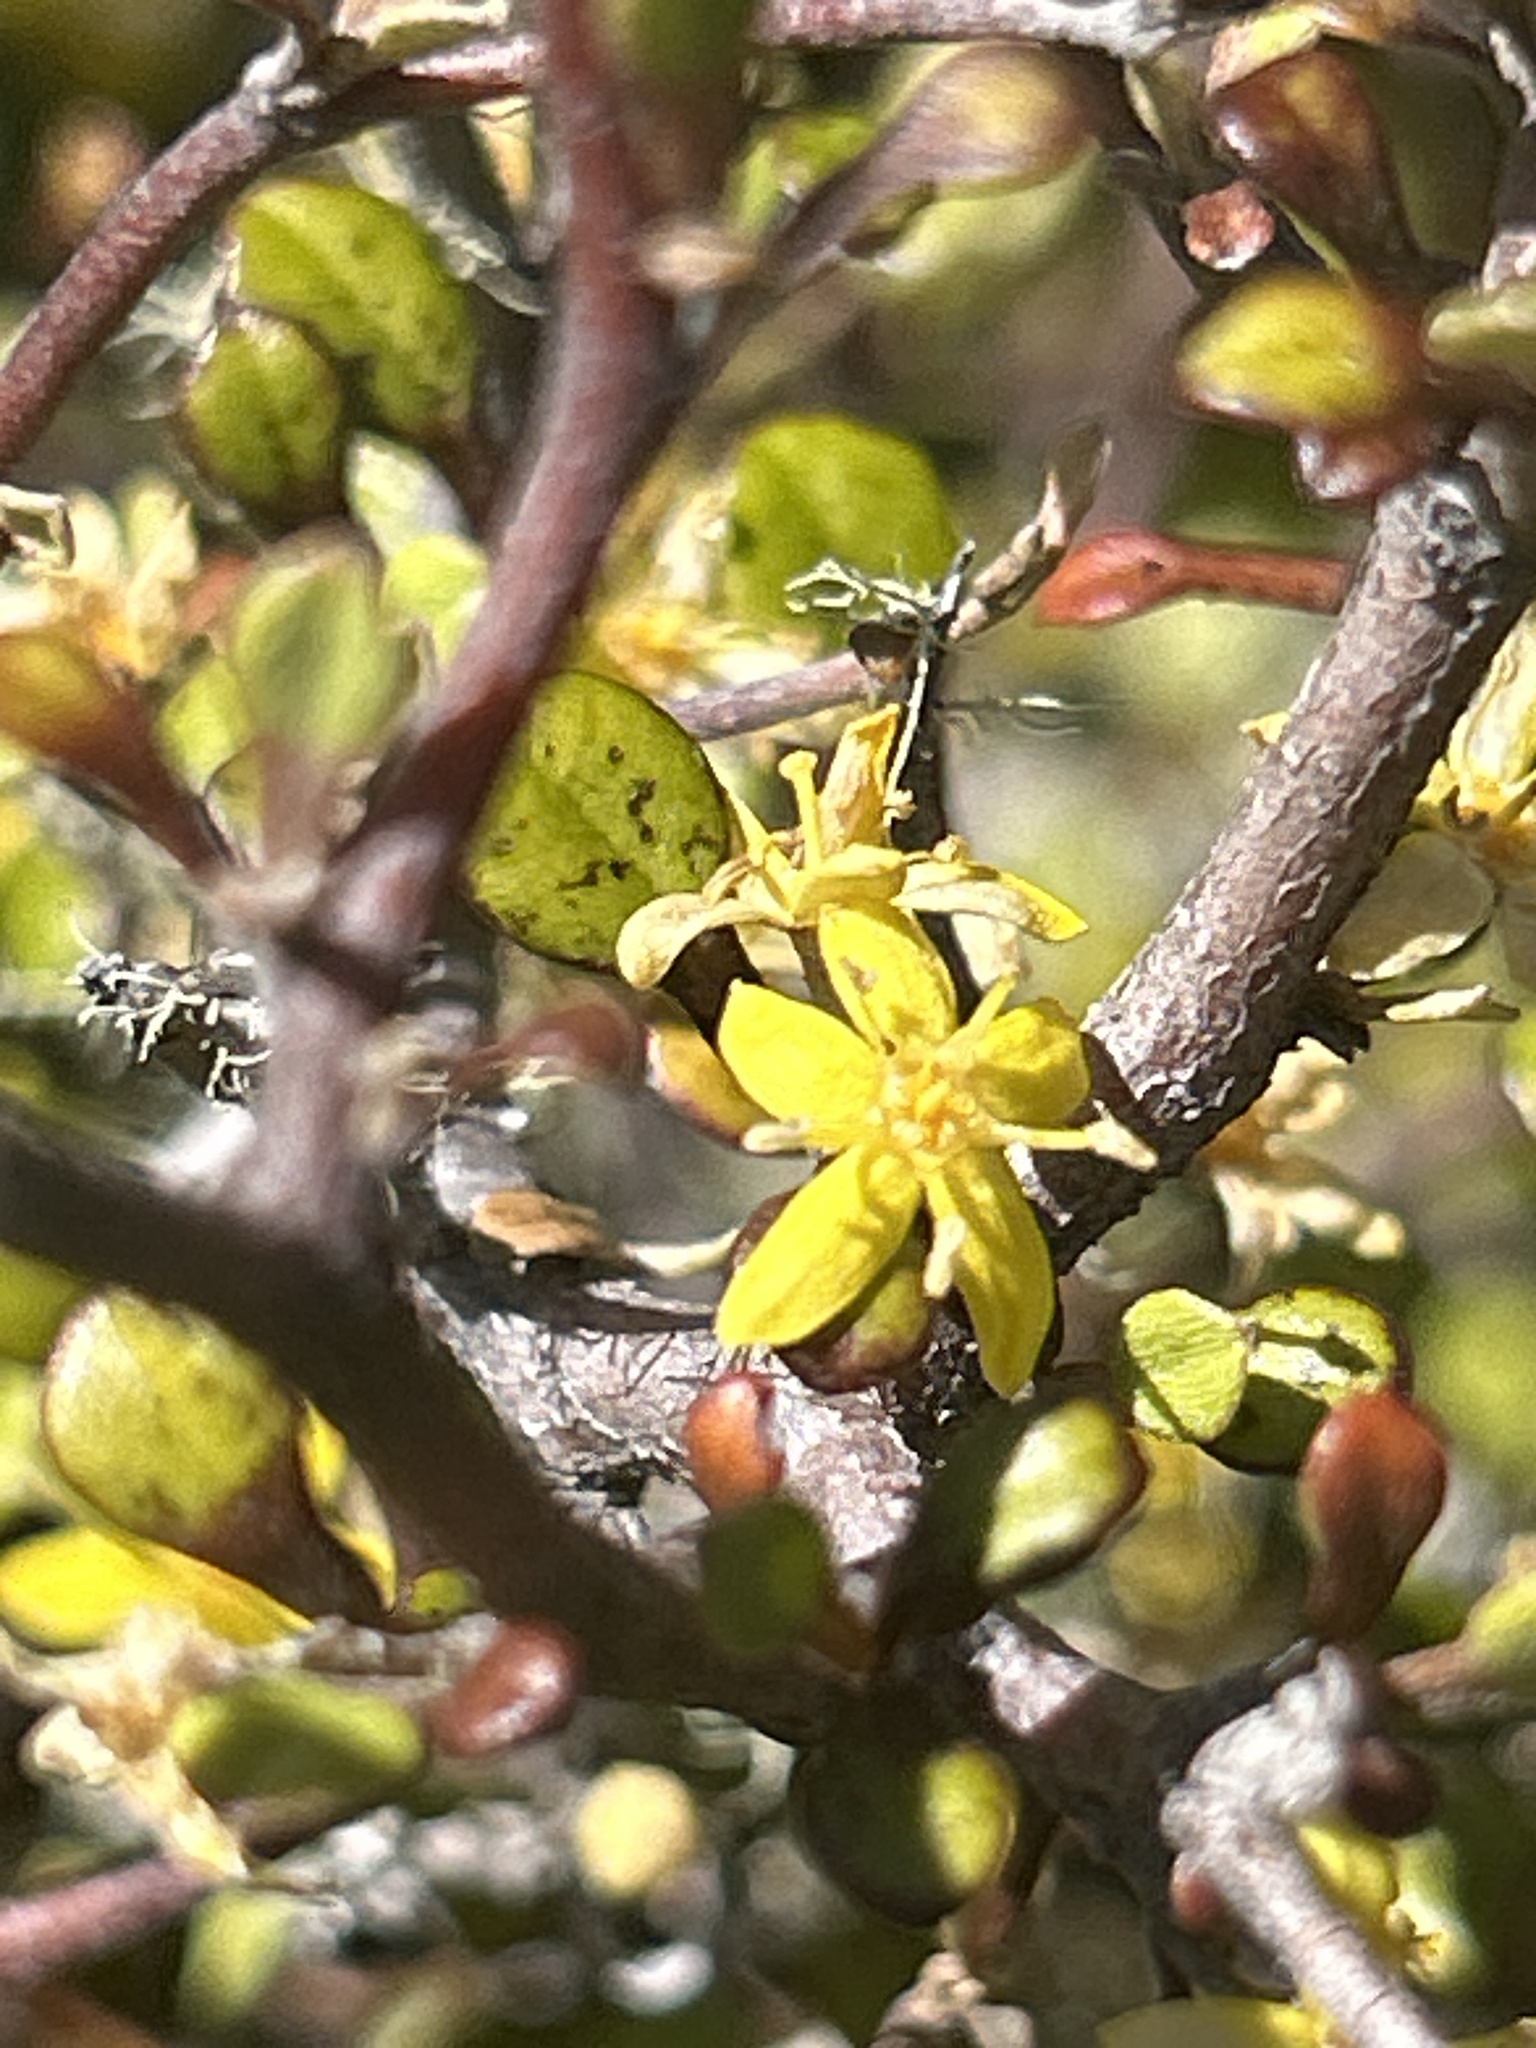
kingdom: Plantae
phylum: Tracheophyta
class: Magnoliopsida
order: Asterales
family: Argophyllaceae
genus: Corokia
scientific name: Corokia cotoneaster
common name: Wire nettingbush
